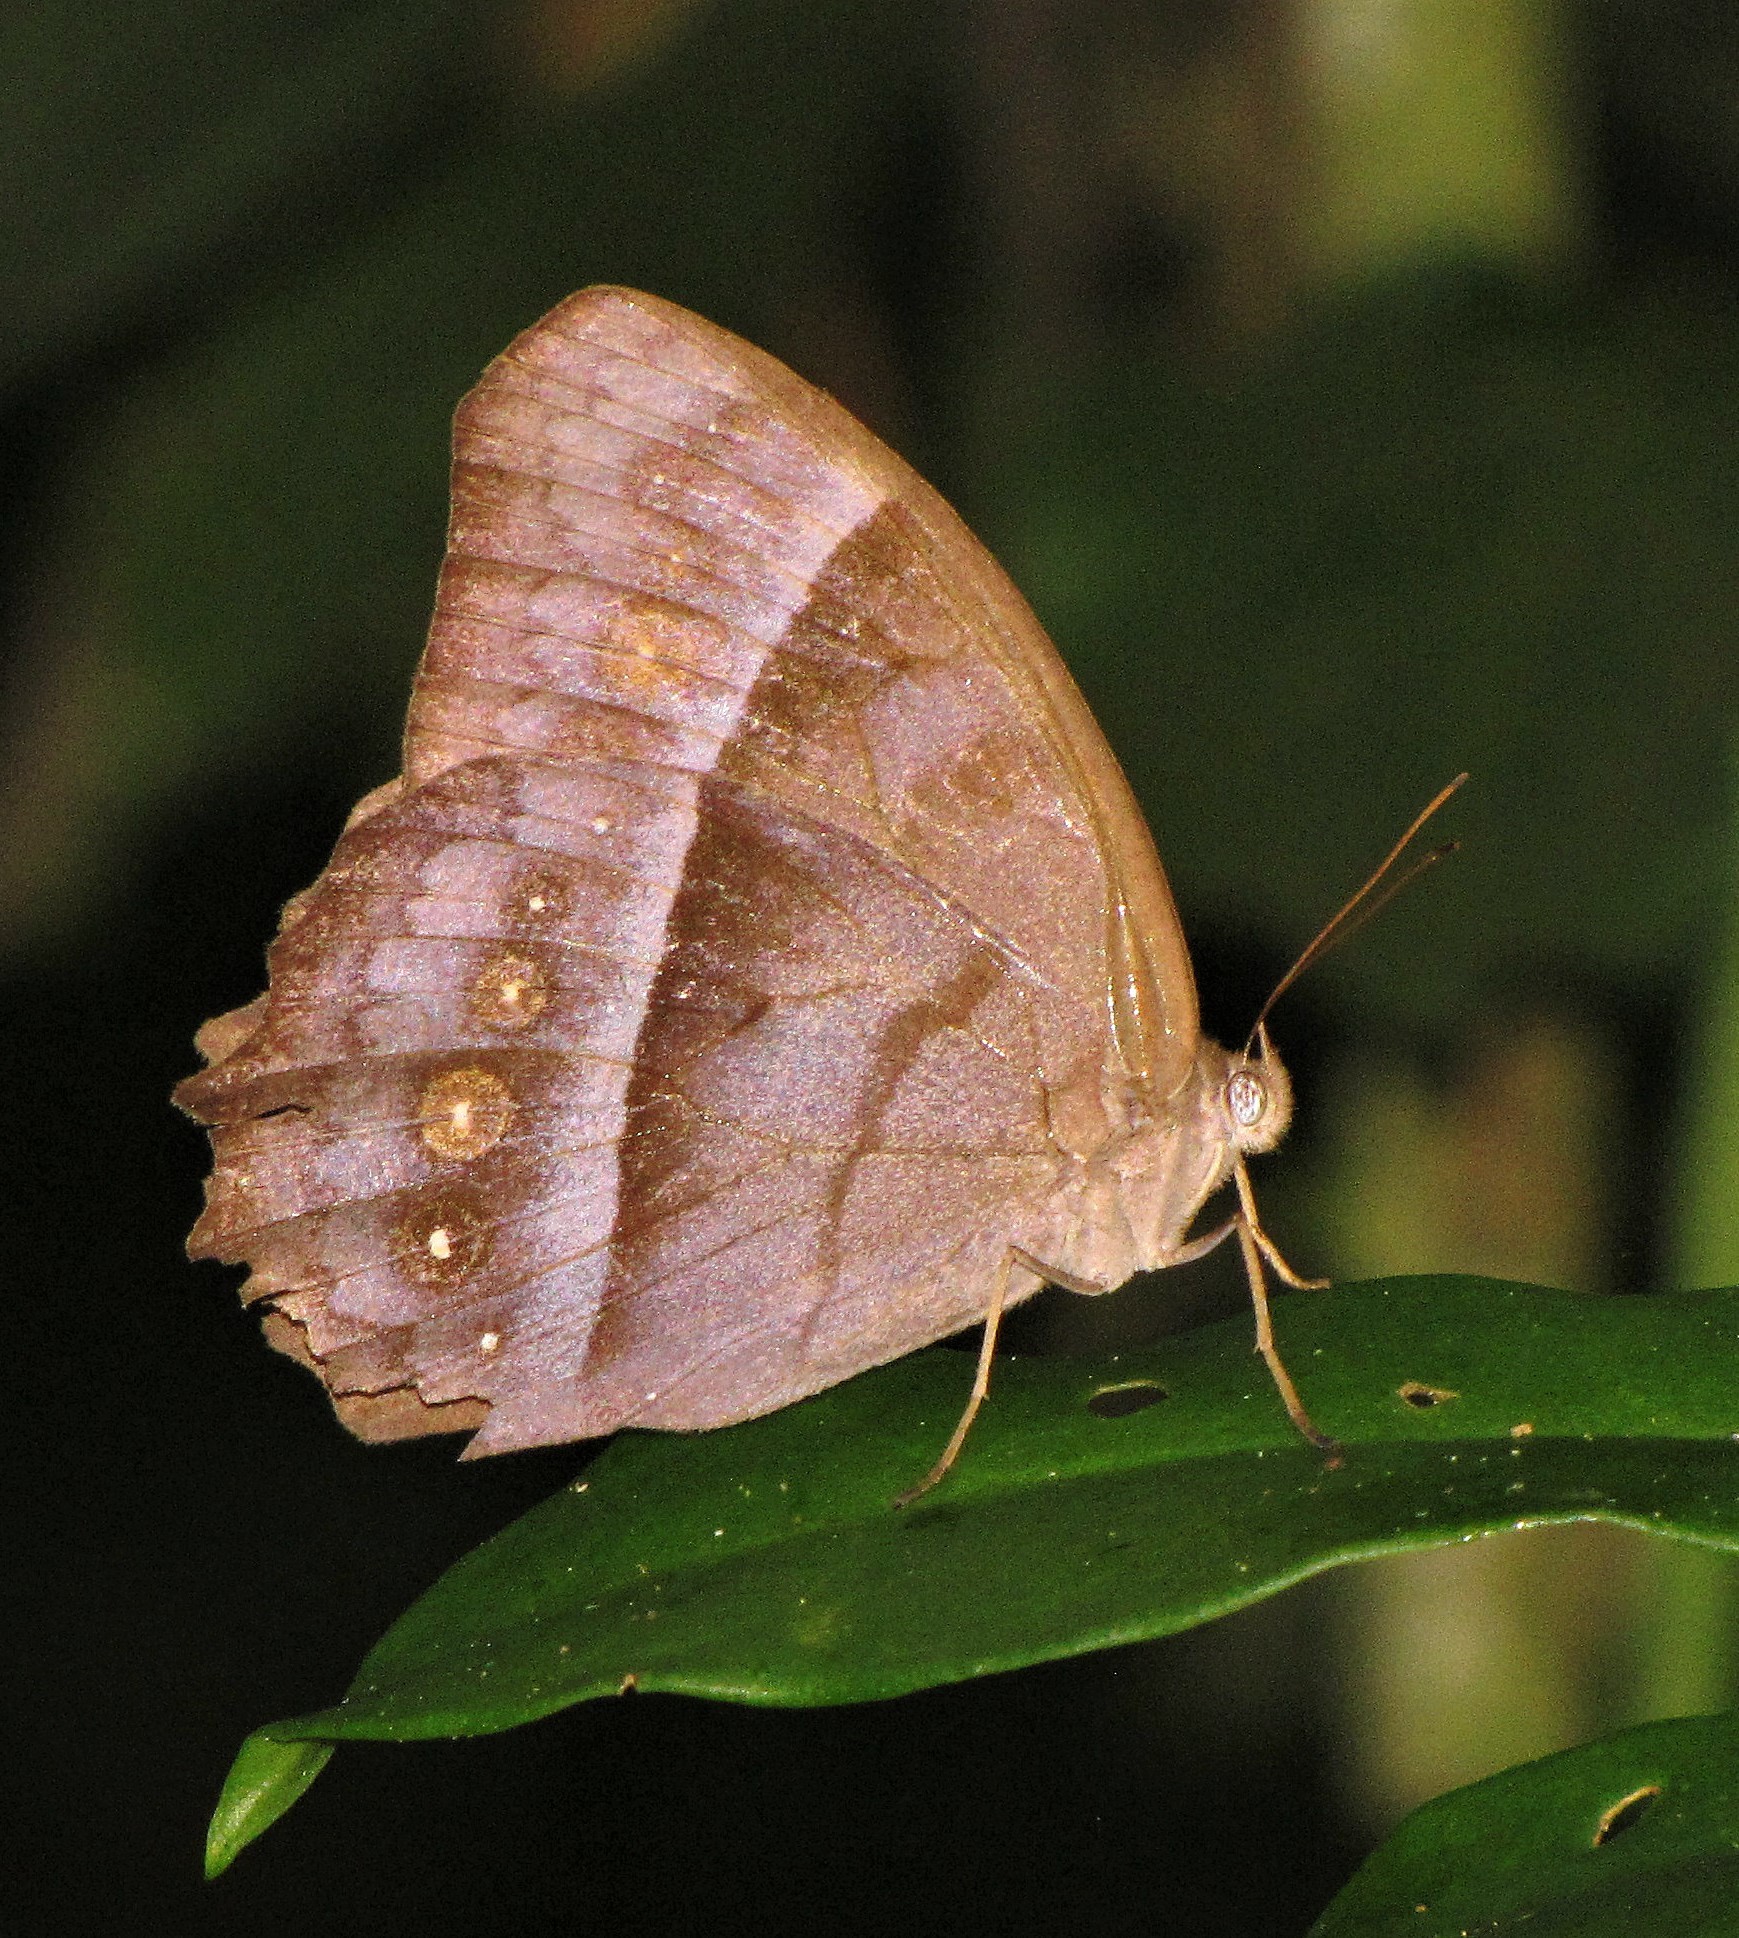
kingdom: Animalia
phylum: Arthropoda
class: Insecta
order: Lepidoptera
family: Nymphalidae
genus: Taygetis
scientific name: Taygetis thamyra
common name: Thamyra satyr
